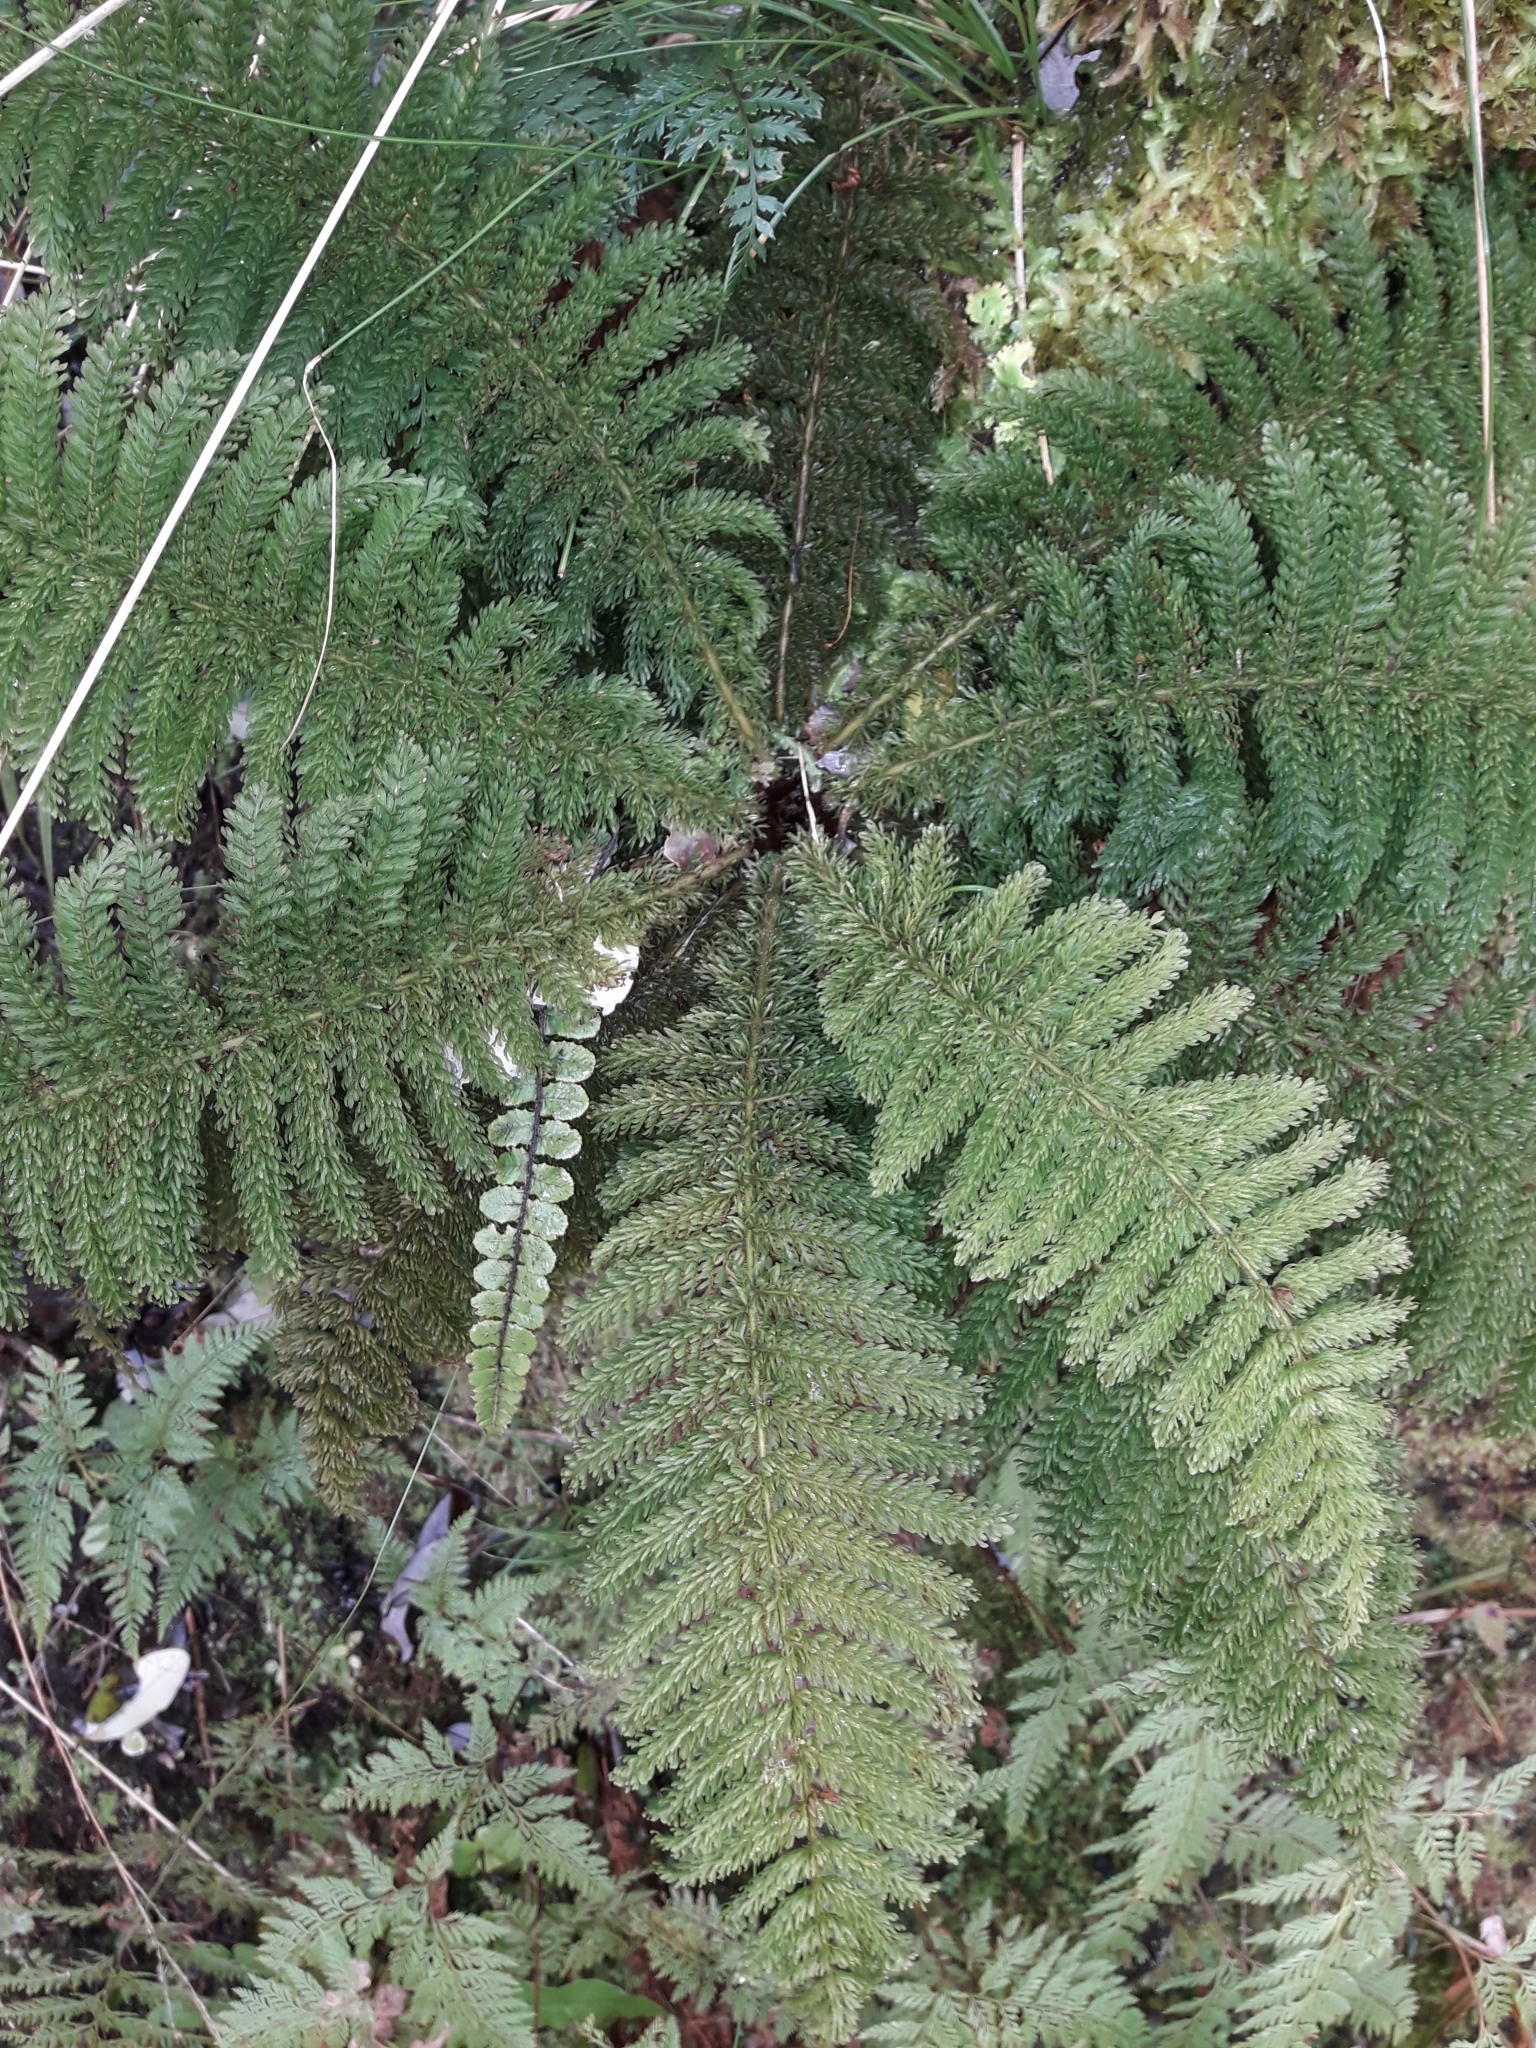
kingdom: Plantae
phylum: Tracheophyta
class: Polypodiopsida
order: Osmundales
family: Osmundaceae
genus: Leptopteris
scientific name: Leptopteris superba
